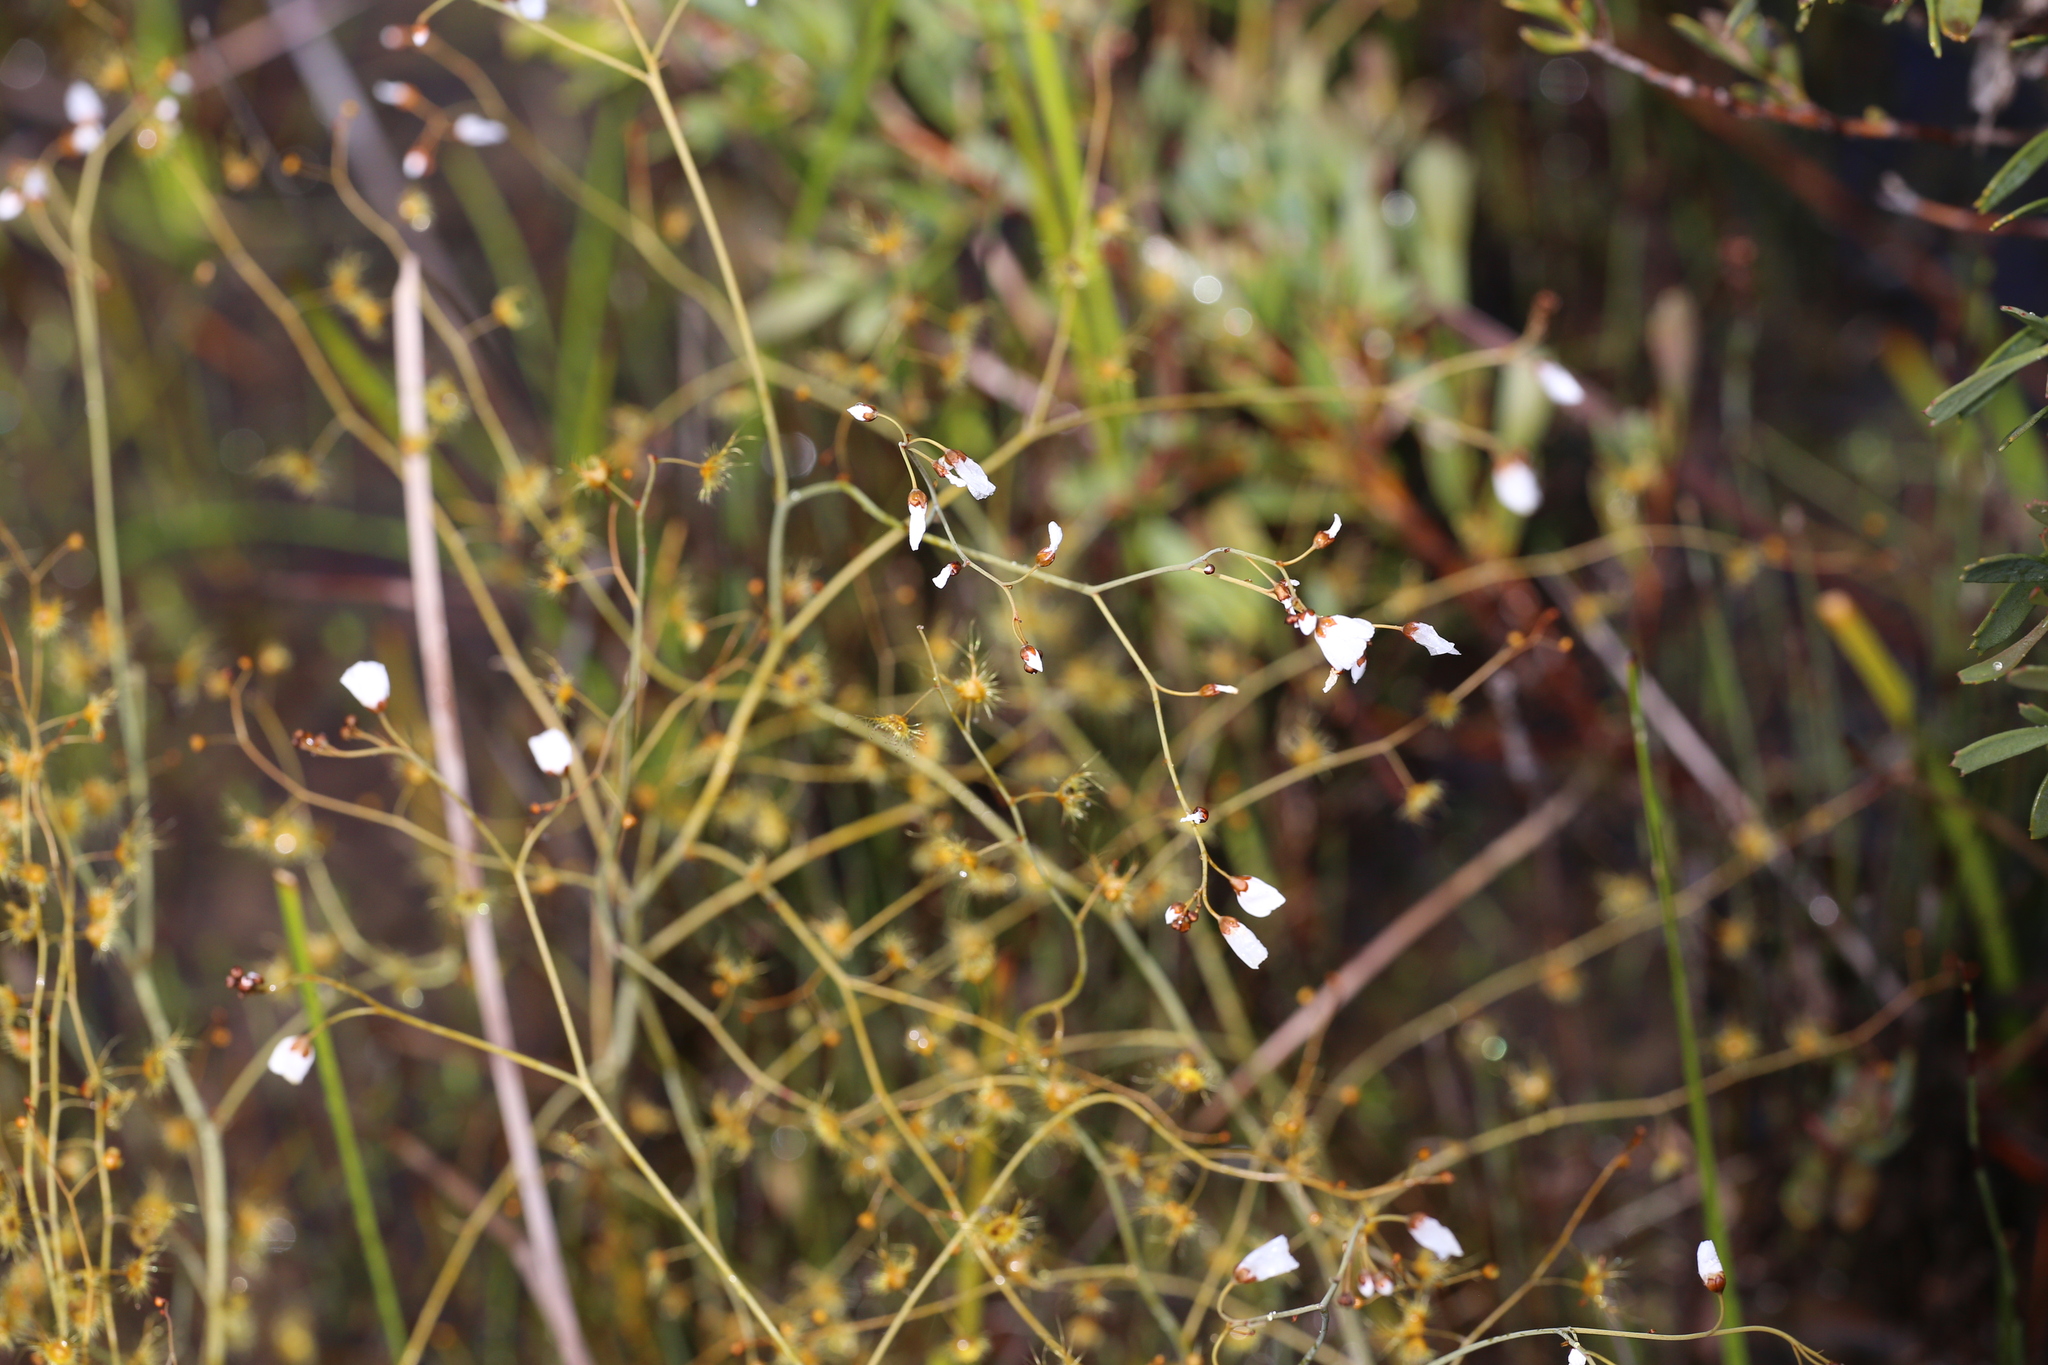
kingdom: Plantae
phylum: Tracheophyta
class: Magnoliopsida
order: Caryophyllales
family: Droseraceae
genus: Drosera
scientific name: Drosera gigantea
